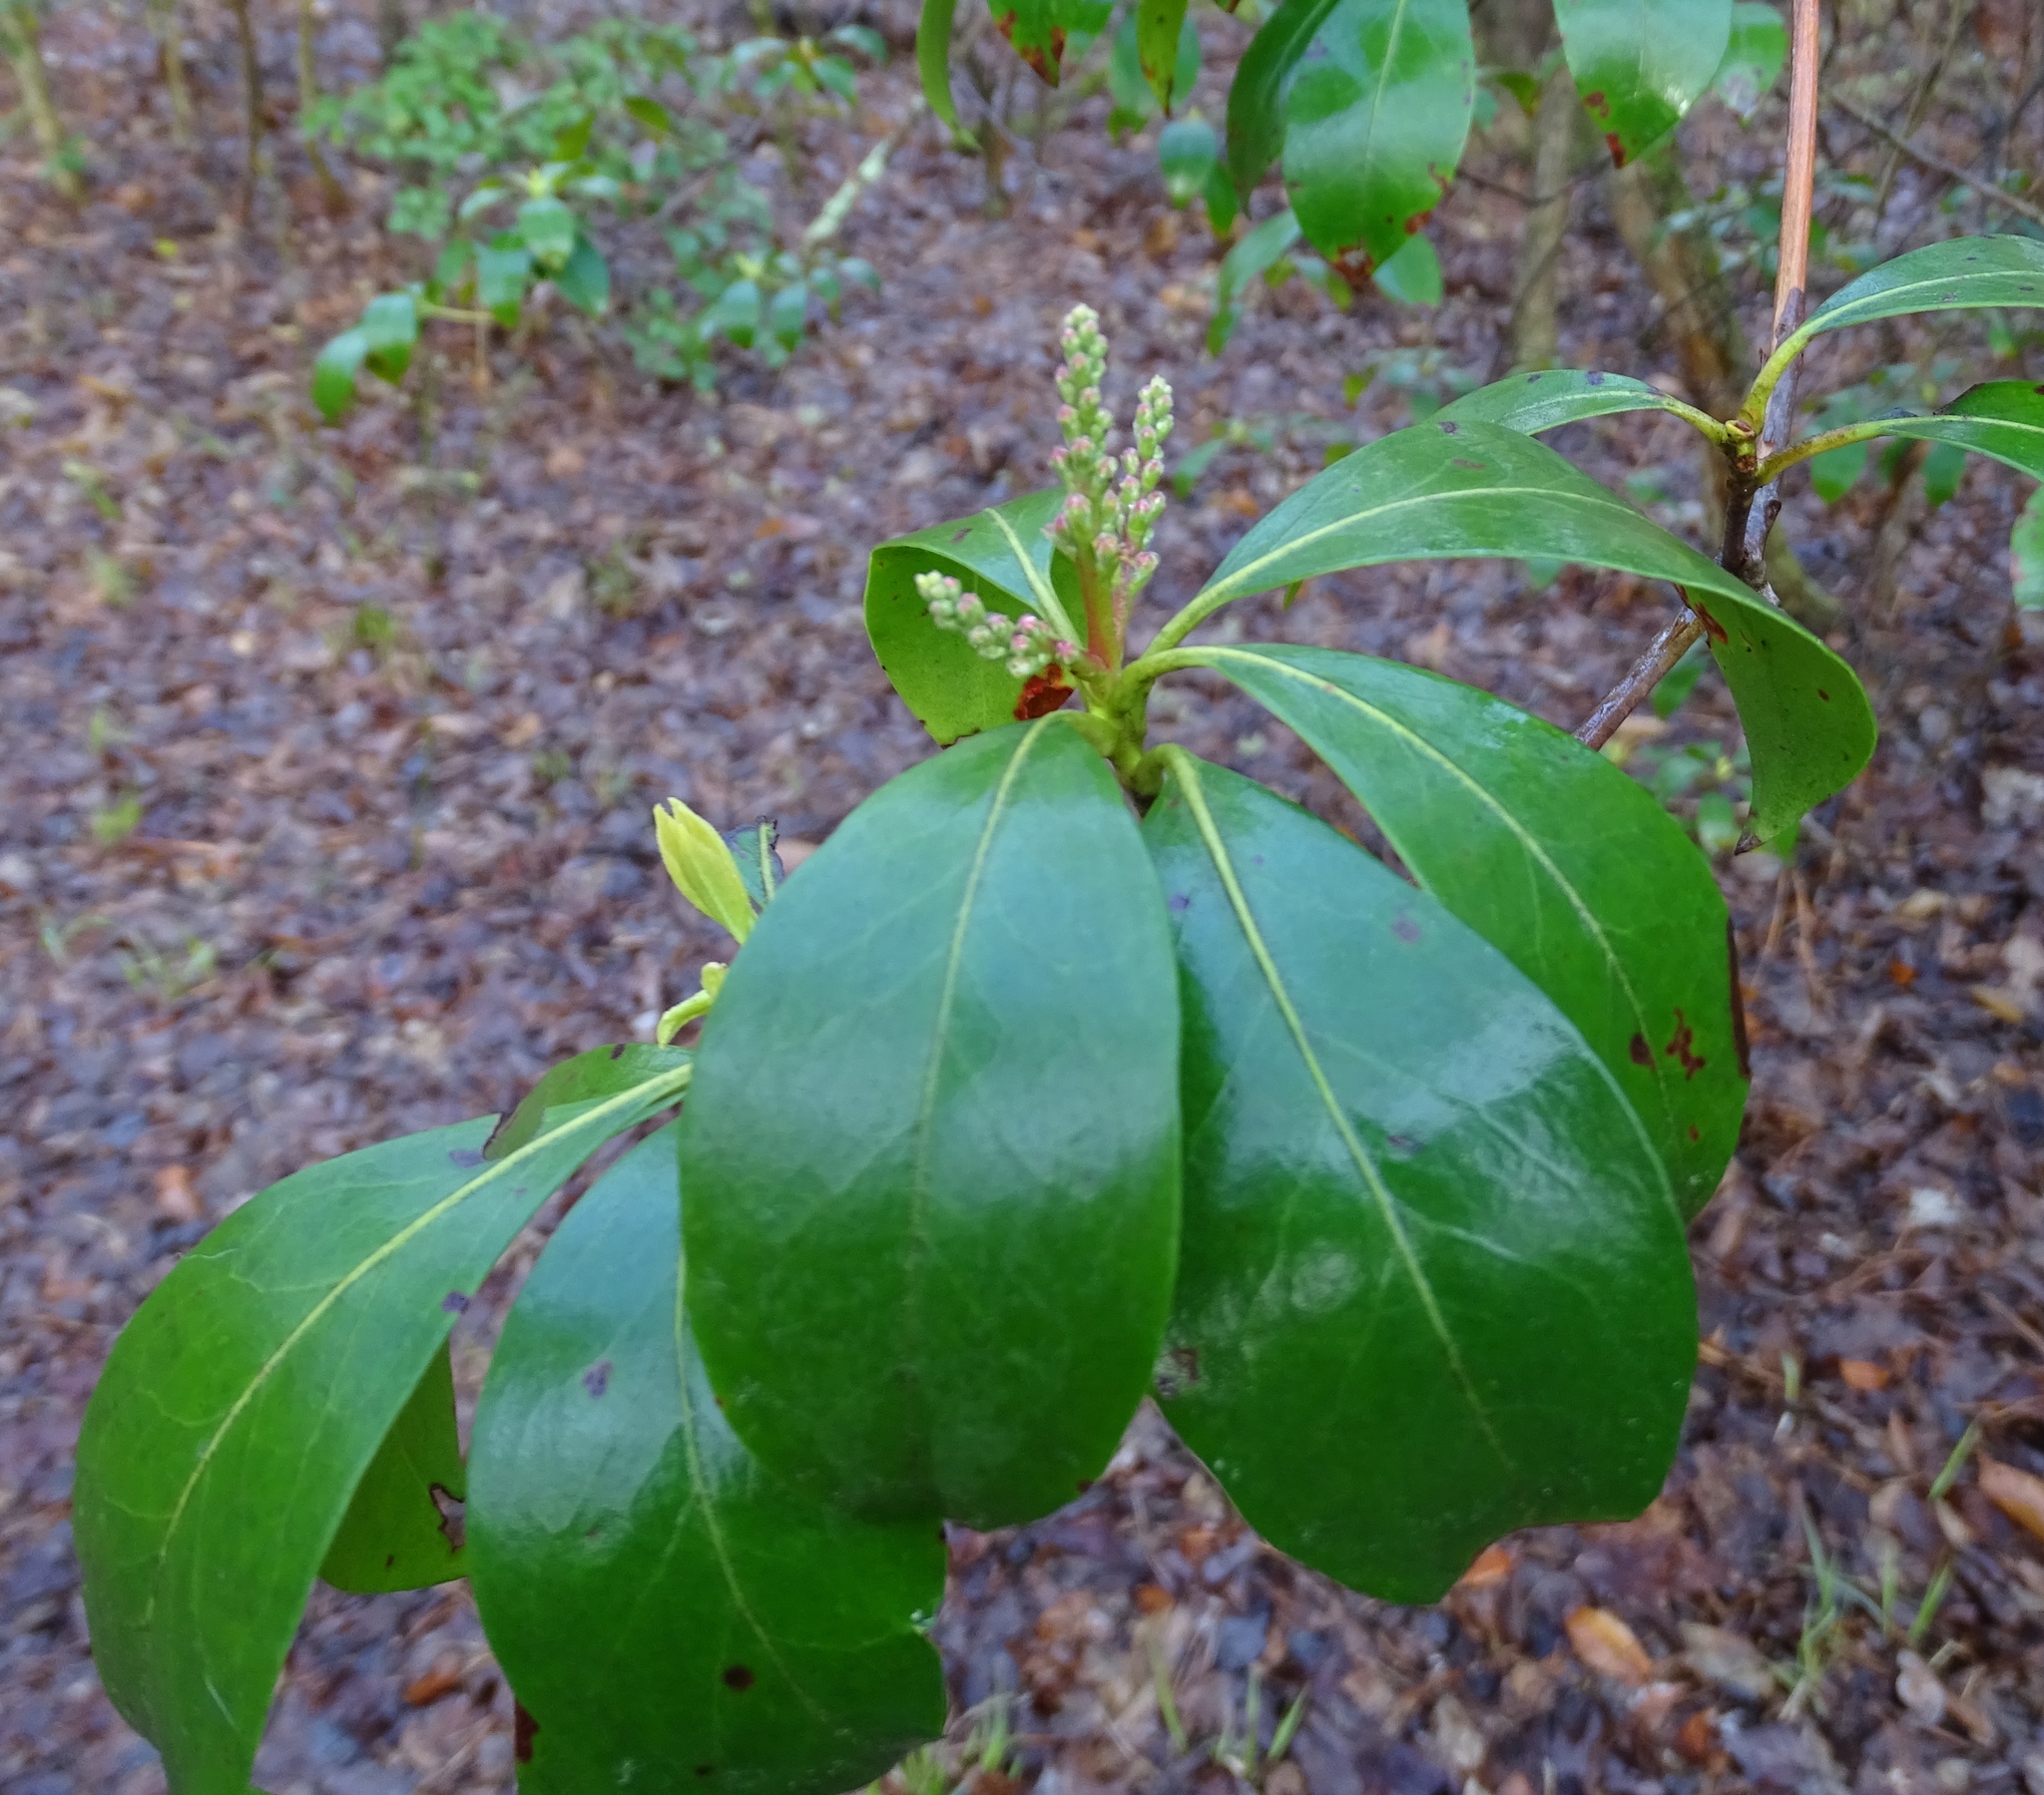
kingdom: Plantae
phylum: Tracheophyta
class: Magnoliopsida
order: Ericales
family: Ericaceae
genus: Kalmia
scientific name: Kalmia latifolia
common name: Mountain-laurel
